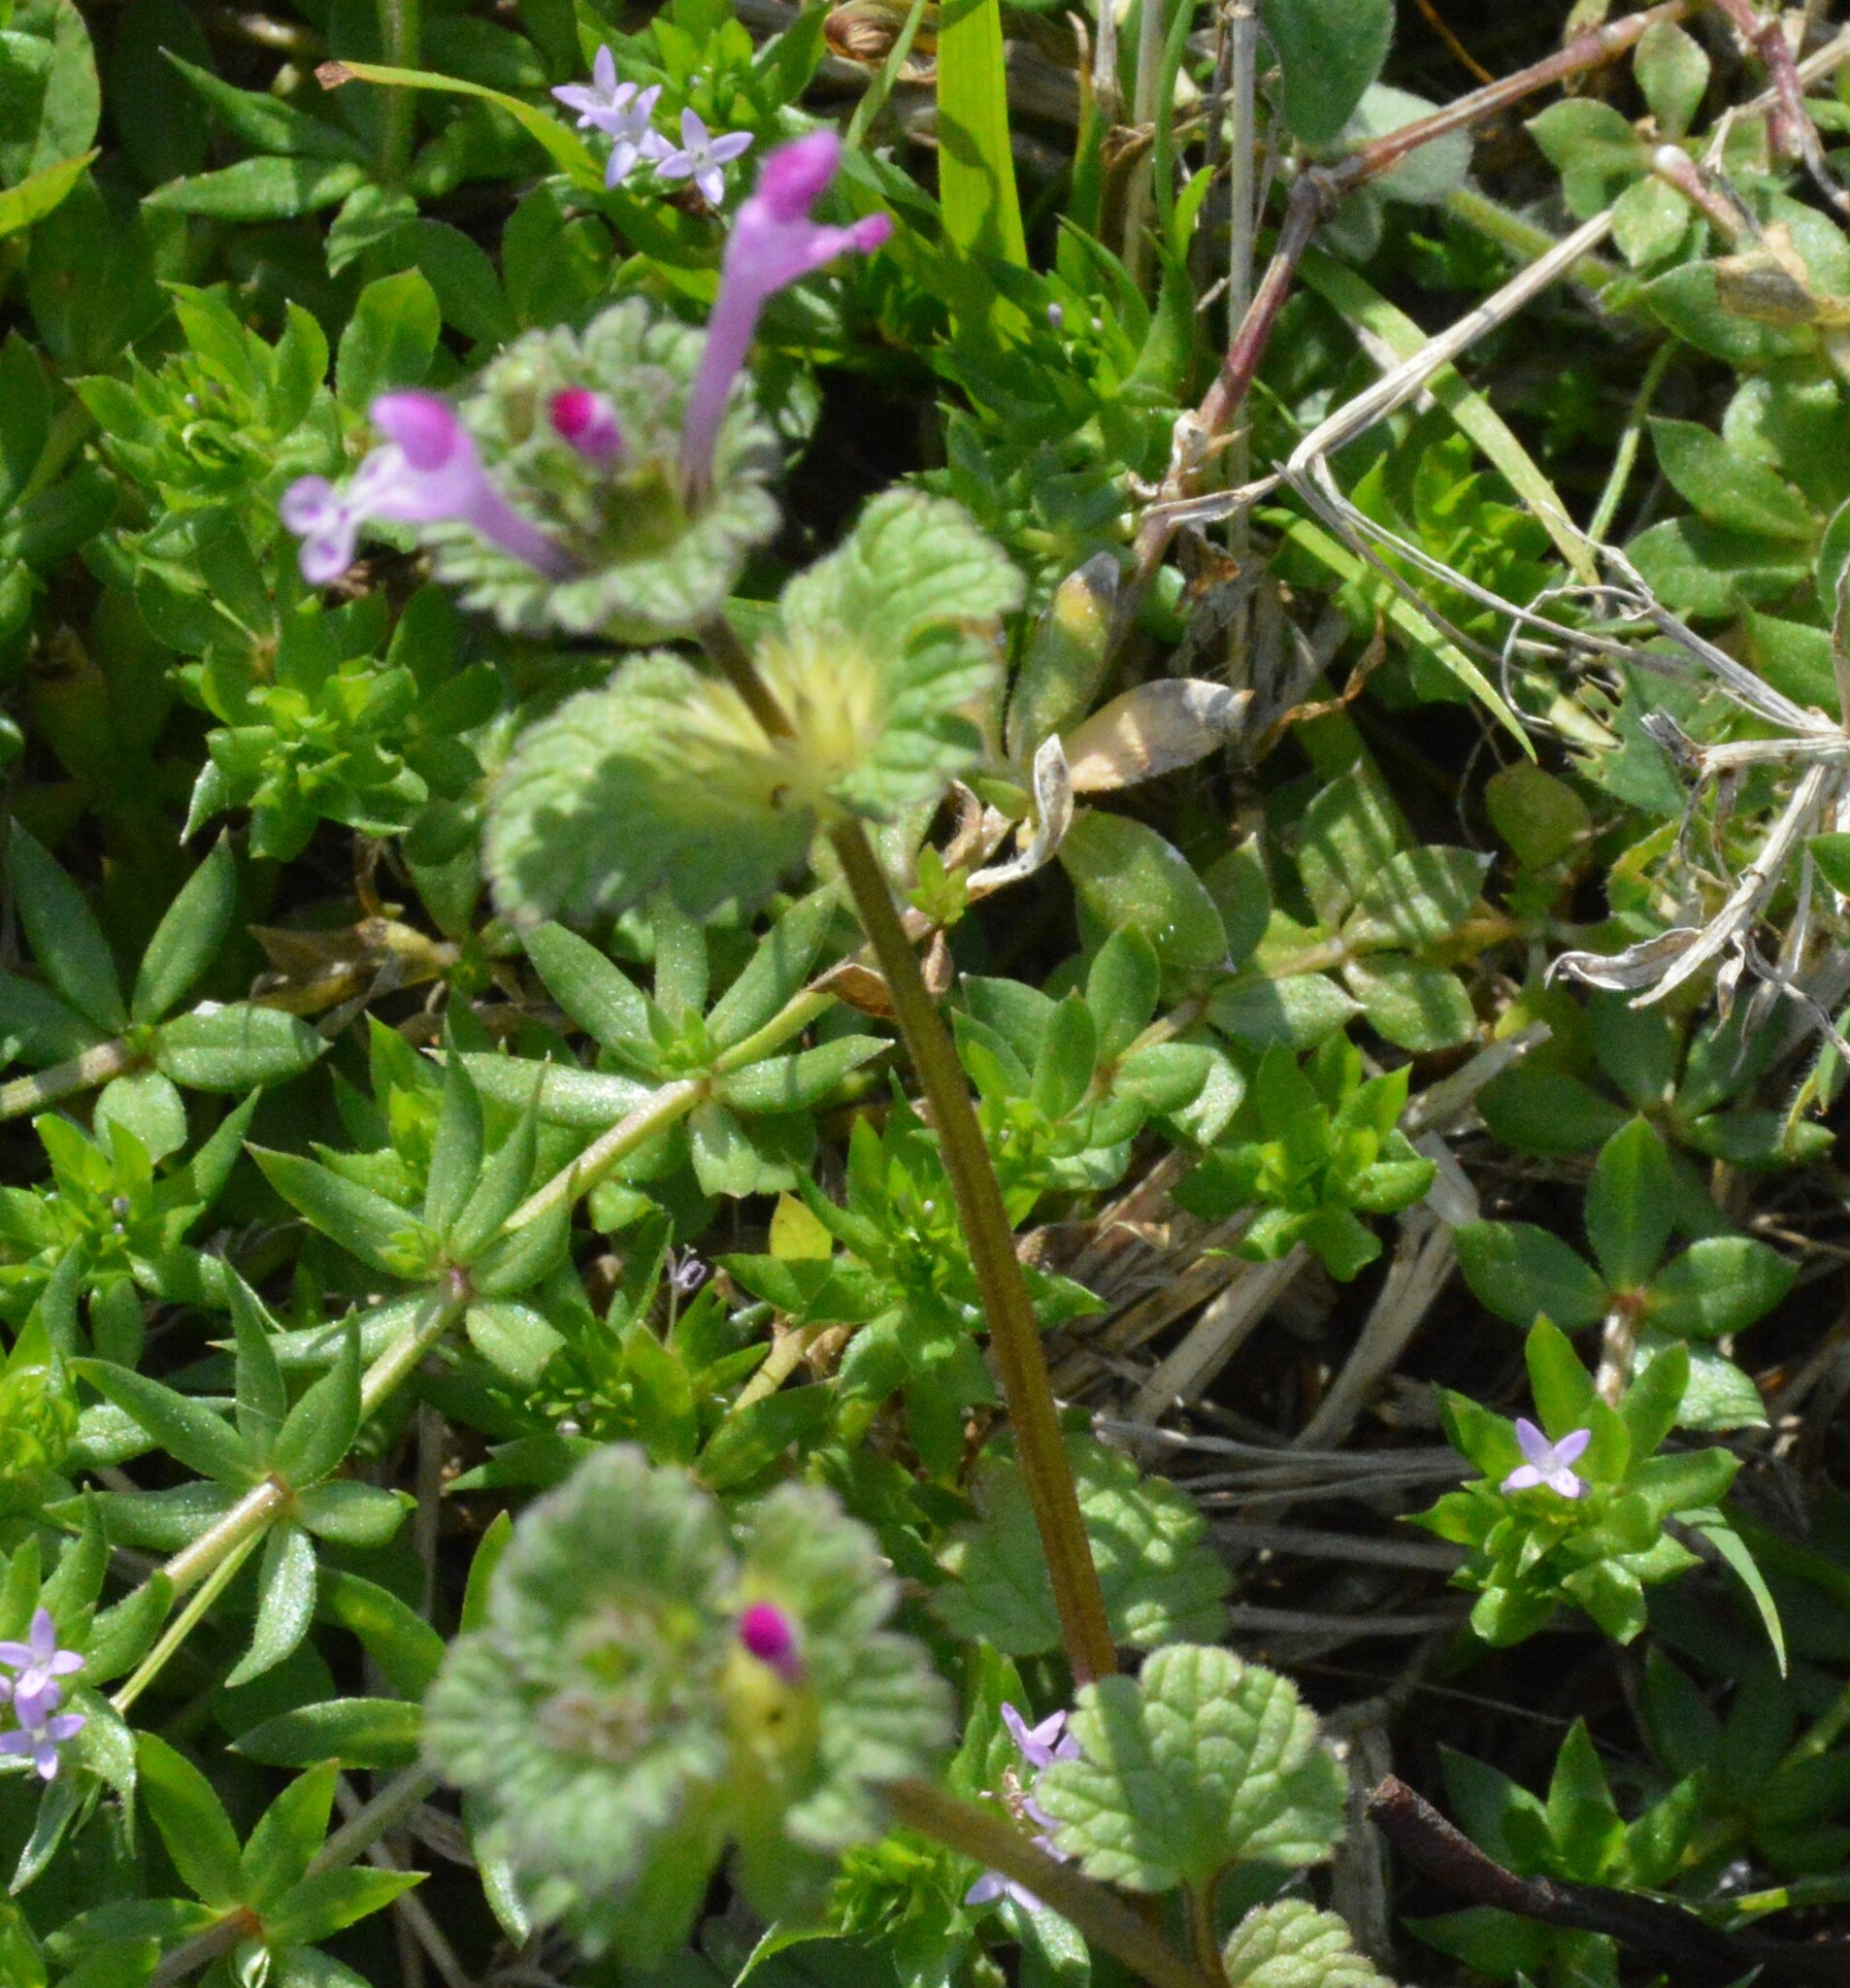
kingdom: Plantae
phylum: Tracheophyta
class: Magnoliopsida
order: Lamiales
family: Lamiaceae
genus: Lamium
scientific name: Lamium amplexicaule
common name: Henbit dead-nettle
